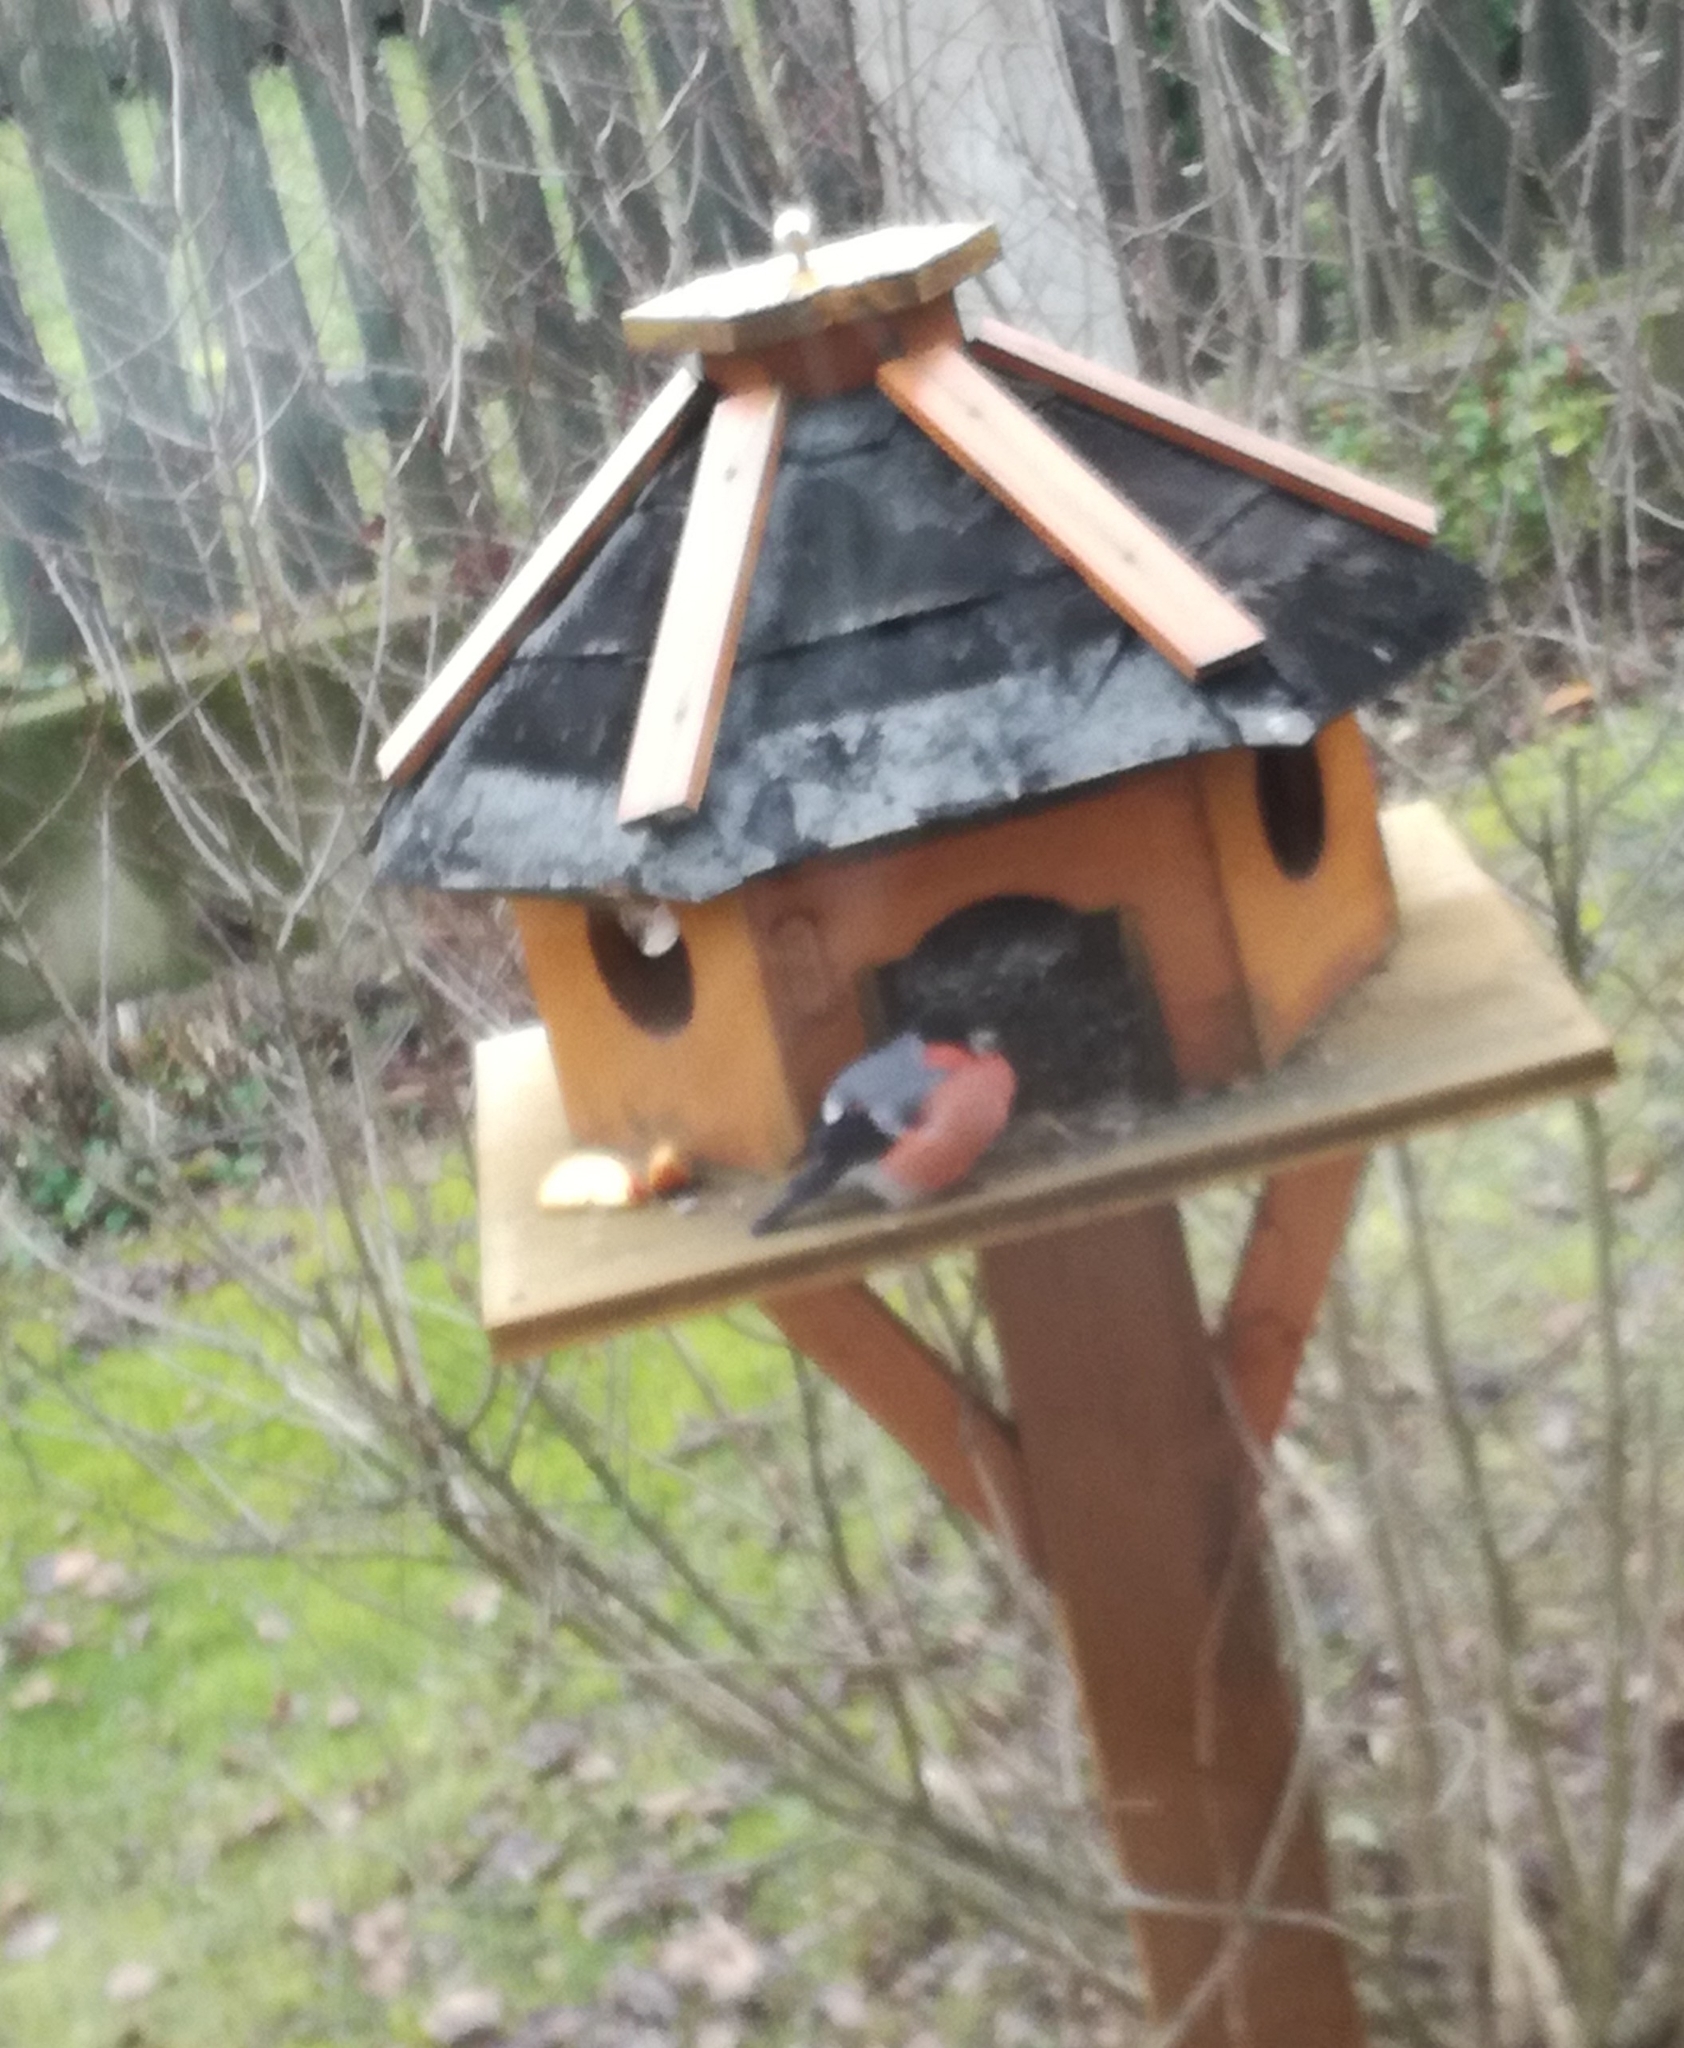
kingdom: Animalia
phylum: Chordata
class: Aves
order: Passeriformes
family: Fringillidae
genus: Pyrrhula
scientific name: Pyrrhula pyrrhula
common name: Eurasian bullfinch
